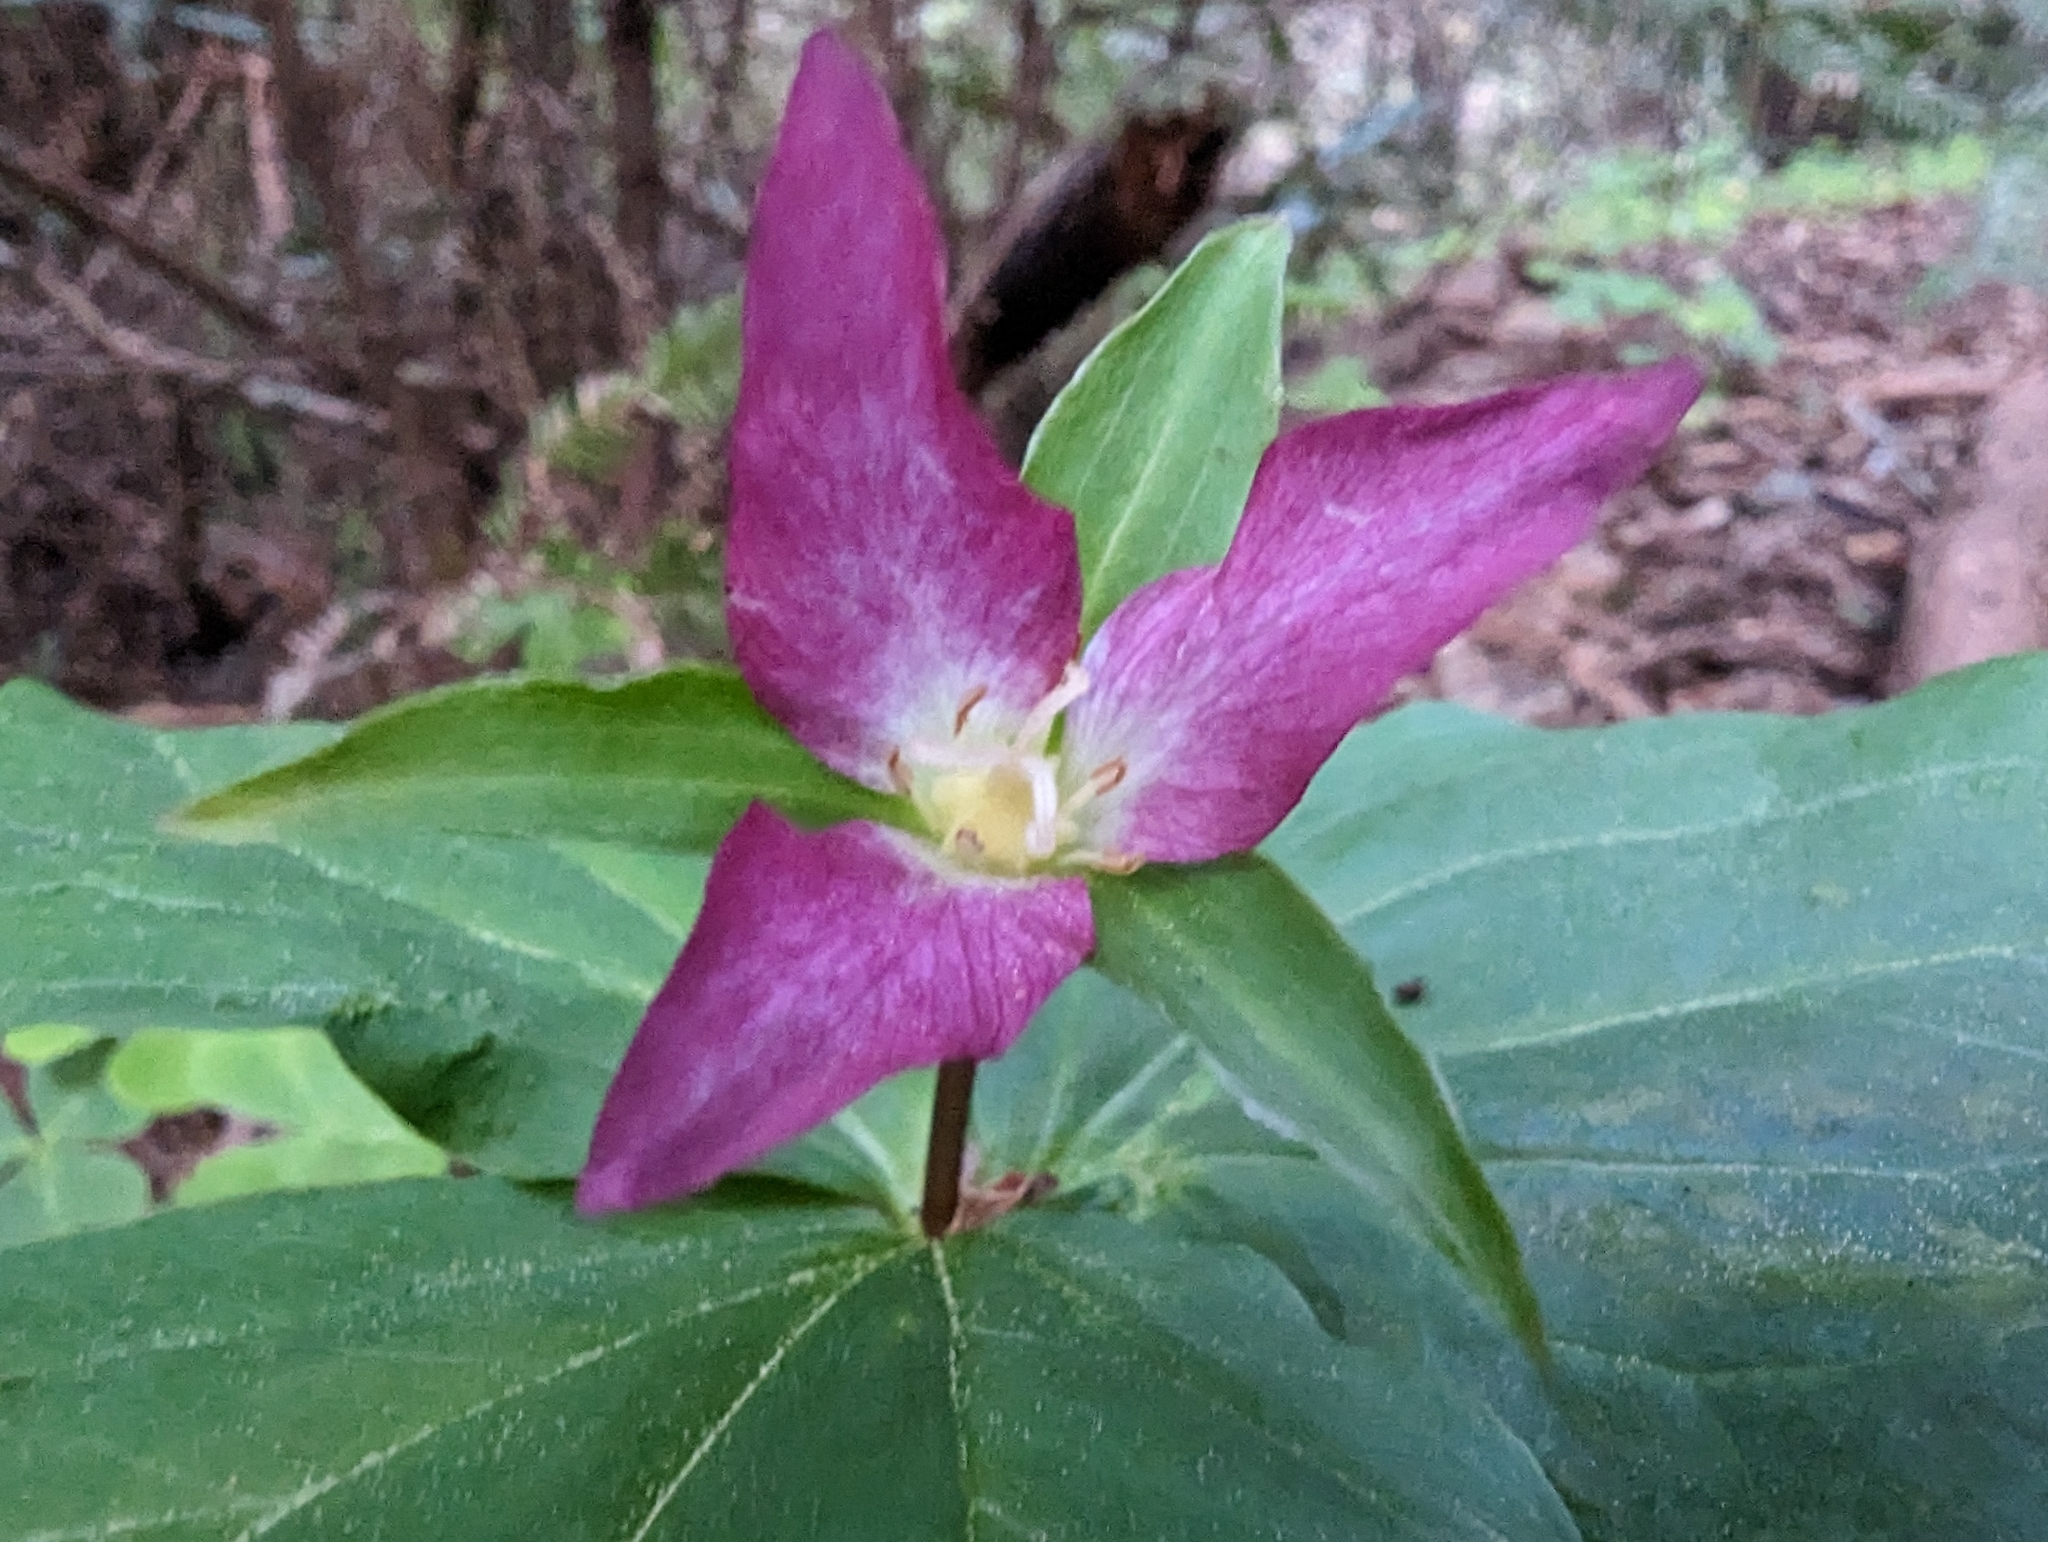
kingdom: Plantae
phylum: Tracheophyta
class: Liliopsida
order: Liliales
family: Melanthiaceae
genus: Trillium
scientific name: Trillium ovatum
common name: Pacific trillium
